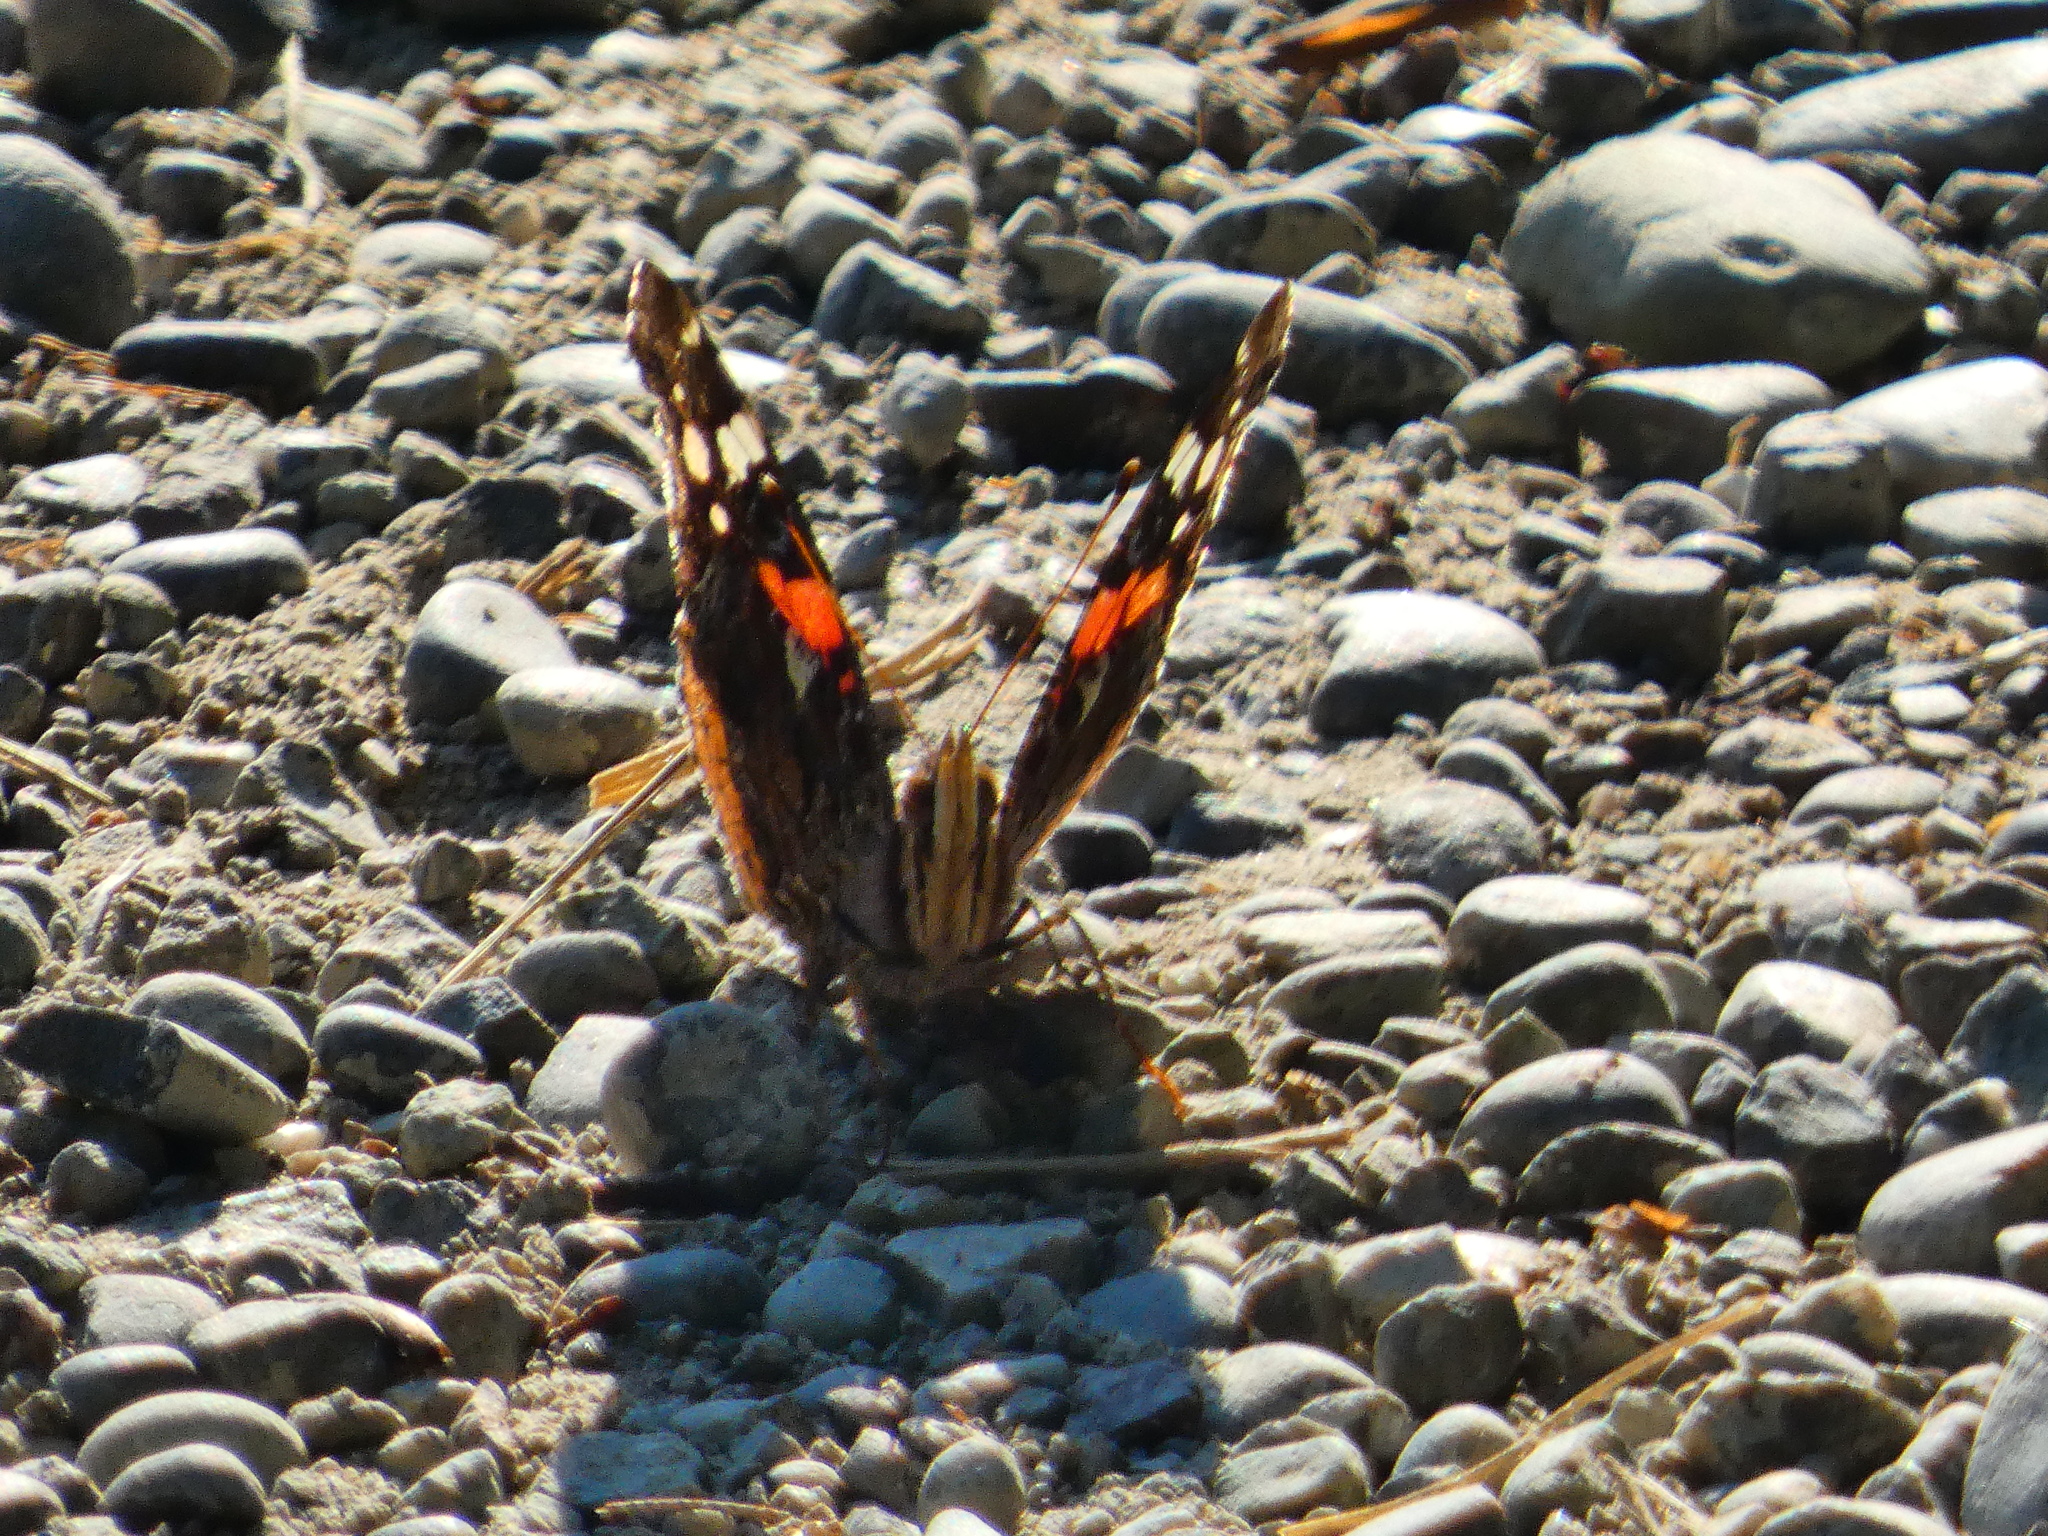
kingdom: Animalia
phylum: Arthropoda
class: Insecta
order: Lepidoptera
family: Nymphalidae
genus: Vanessa
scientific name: Vanessa atalanta
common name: Red admiral
